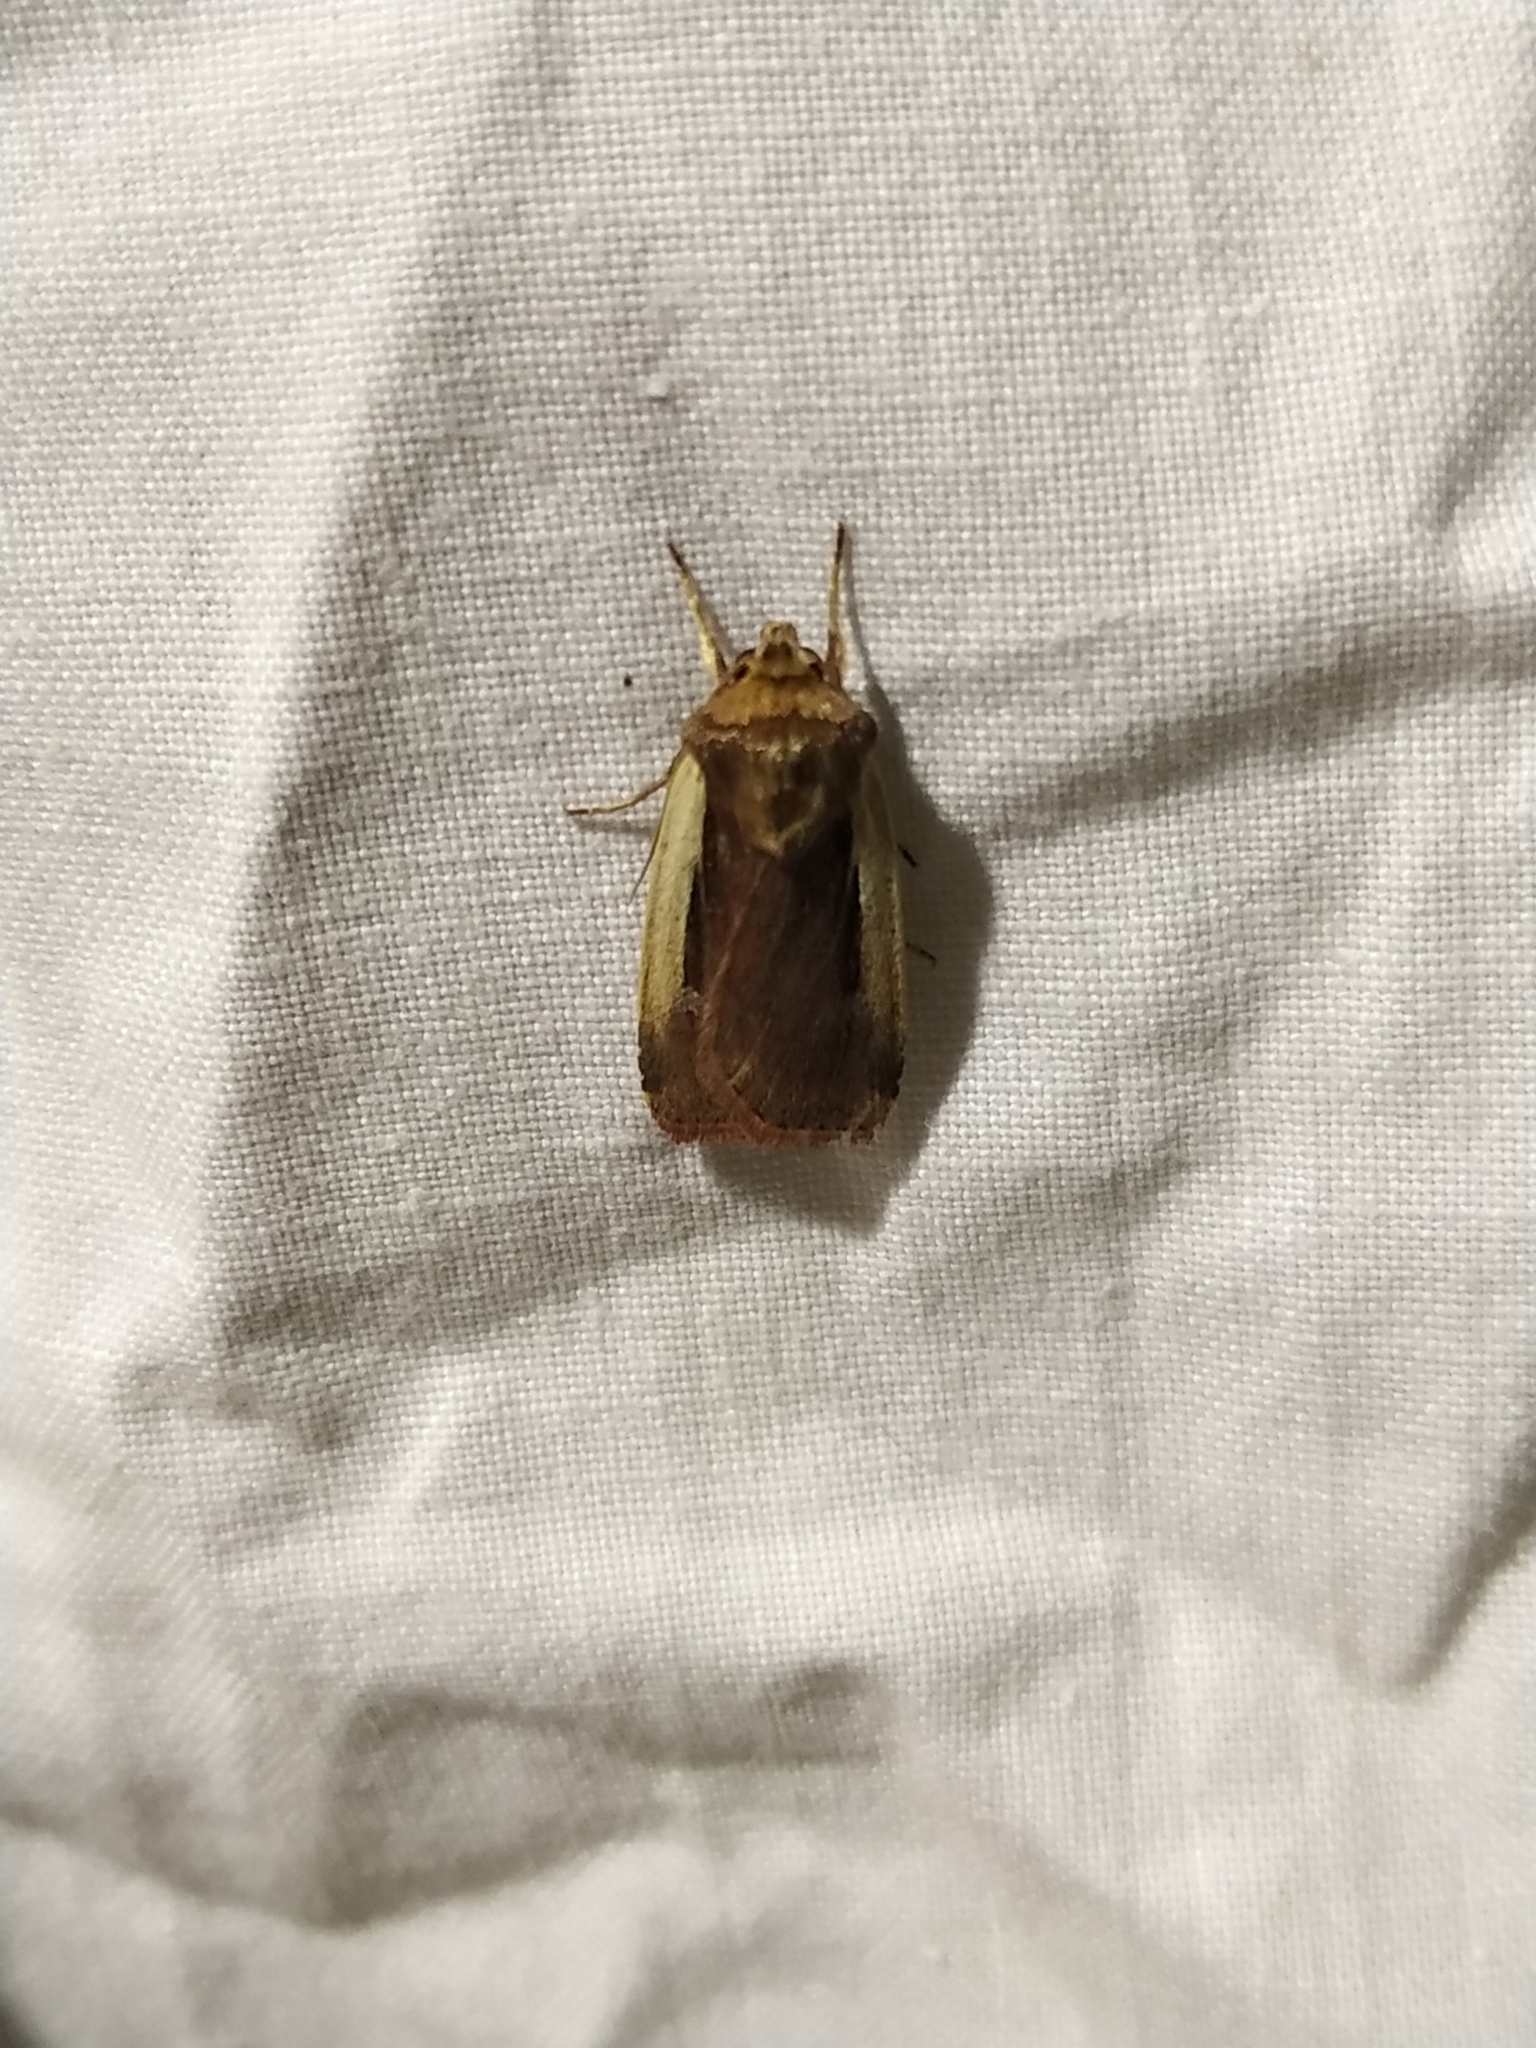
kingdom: Animalia
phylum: Arthropoda
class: Insecta
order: Lepidoptera
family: Noctuidae
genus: Ochropleura
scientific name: Ochropleura plecta
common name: Flame shoulder
